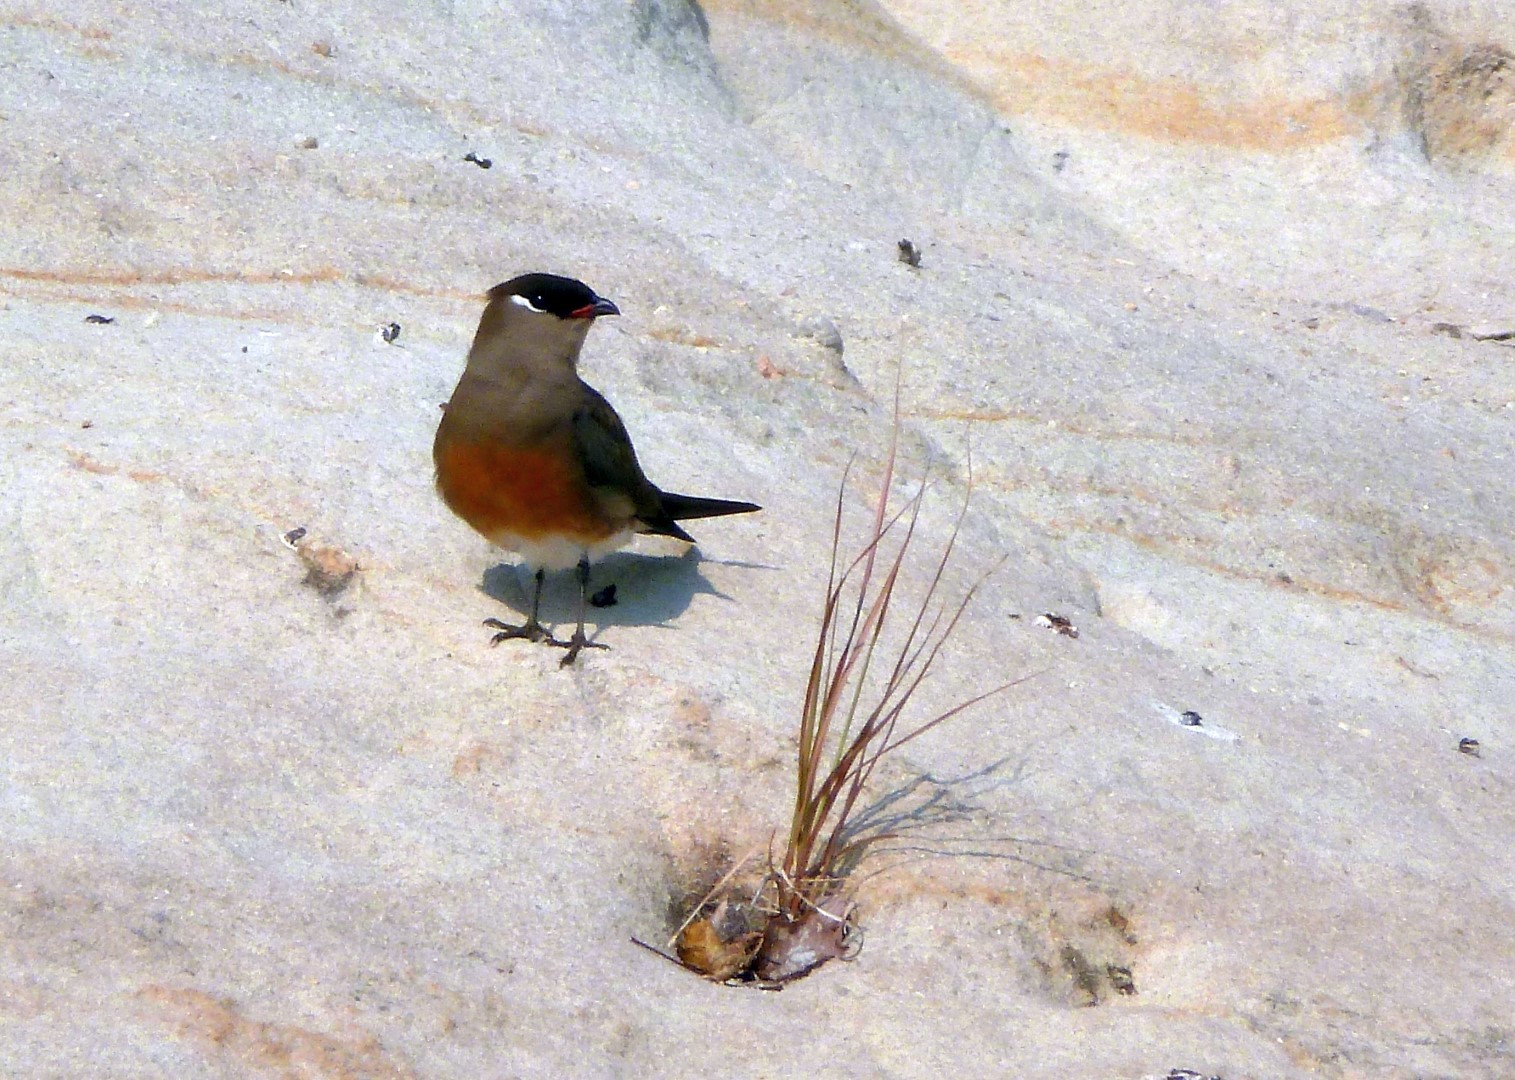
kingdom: Animalia
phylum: Chordata
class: Aves
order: Charadriiformes
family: Glareolidae
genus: Glareola
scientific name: Glareola ocularis
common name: Madagascar pratincole
